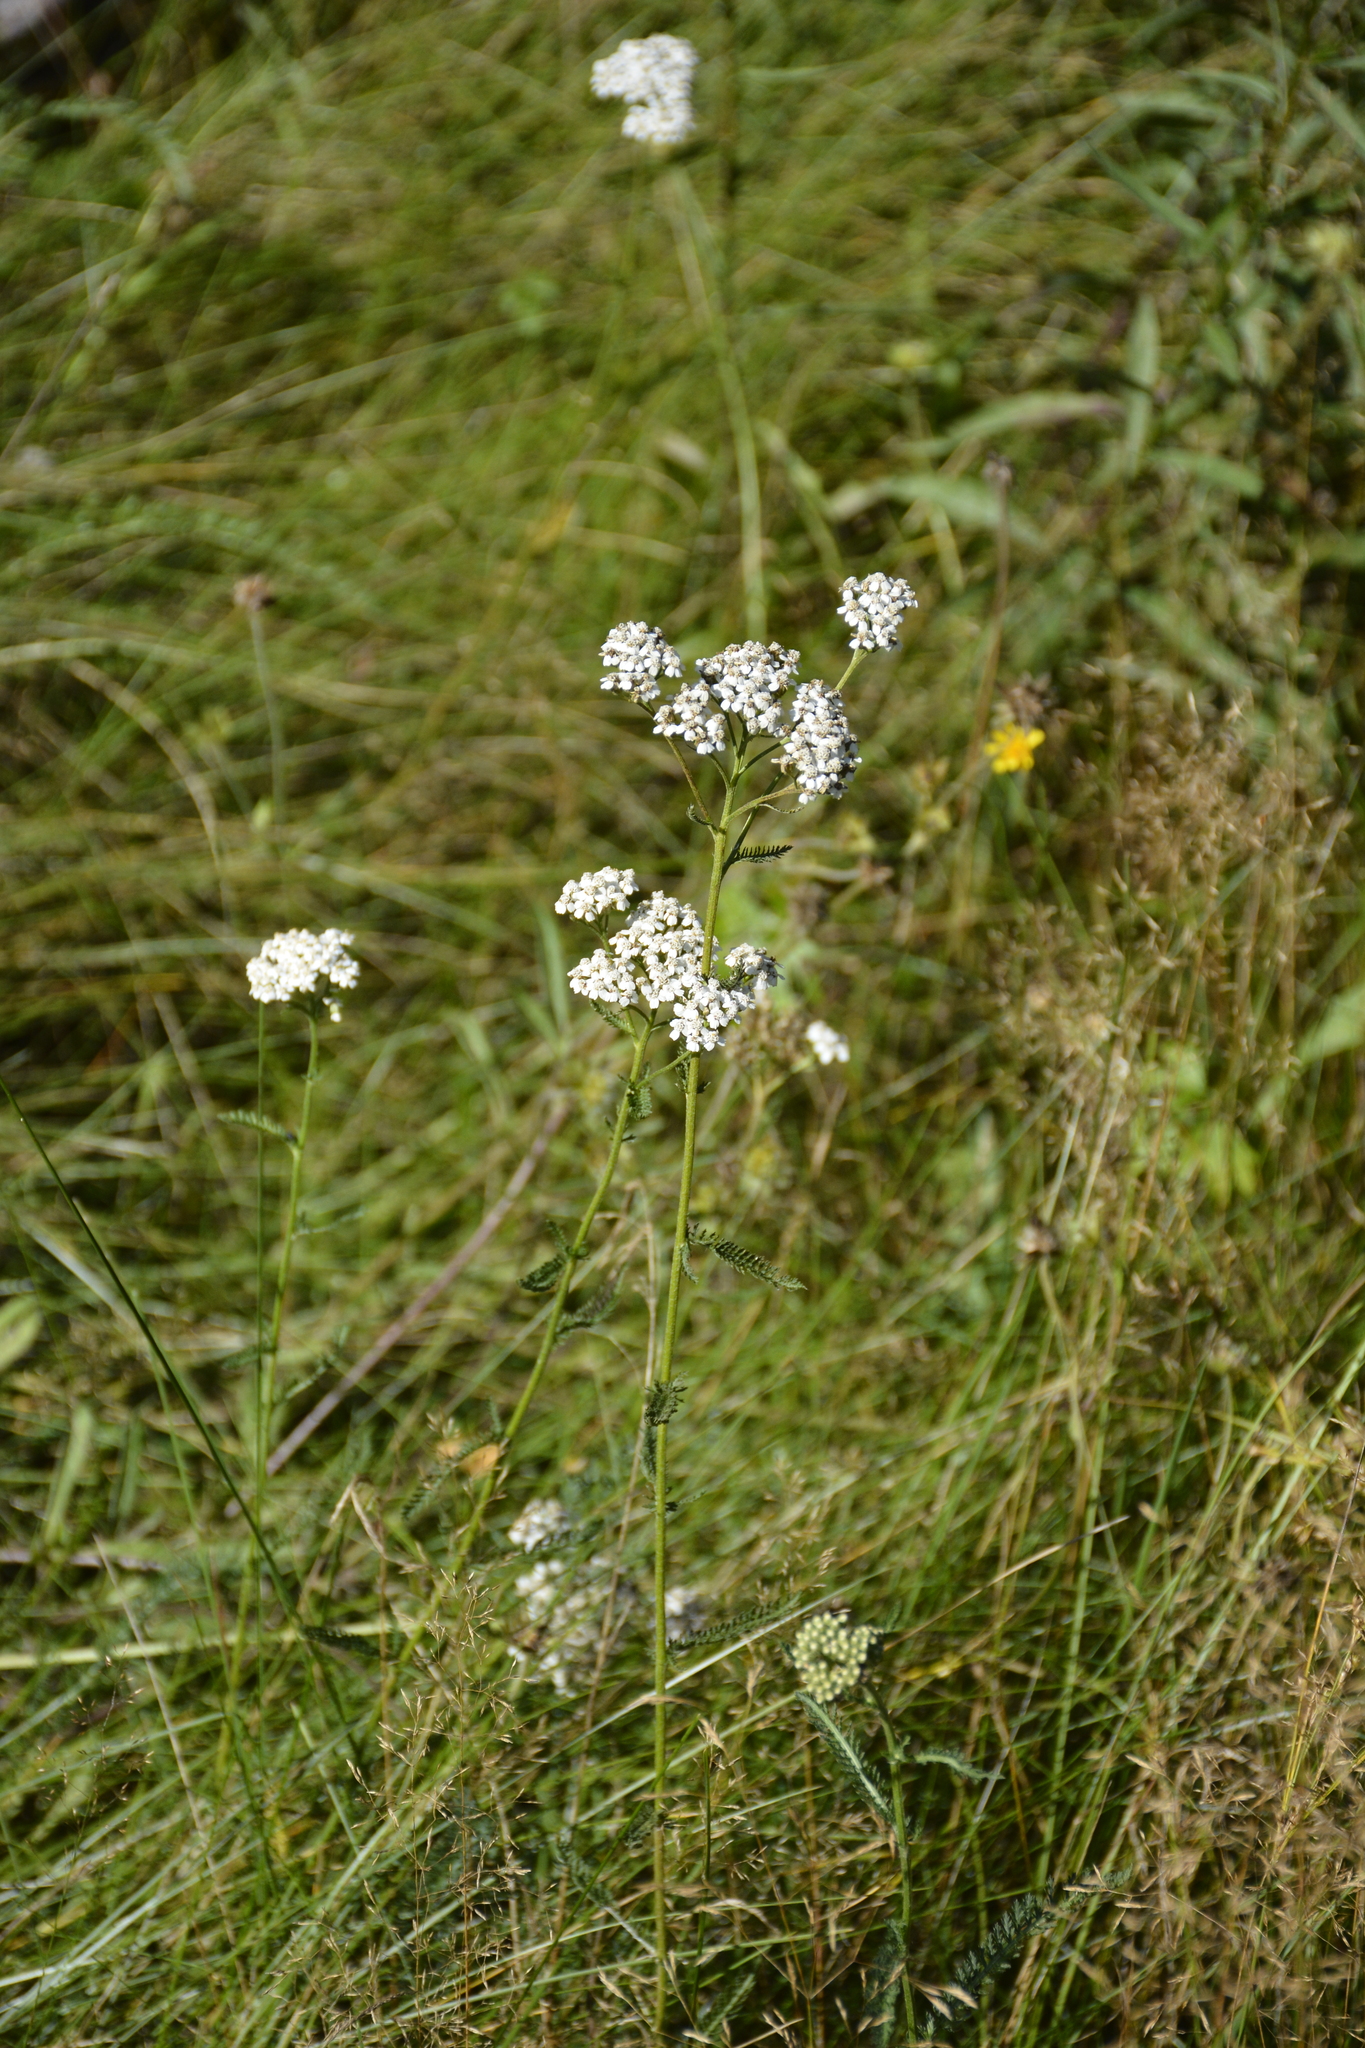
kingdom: Plantae
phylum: Tracheophyta
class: Magnoliopsida
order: Asterales
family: Asteraceae
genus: Achillea
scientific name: Achillea millefolium
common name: Yarrow
